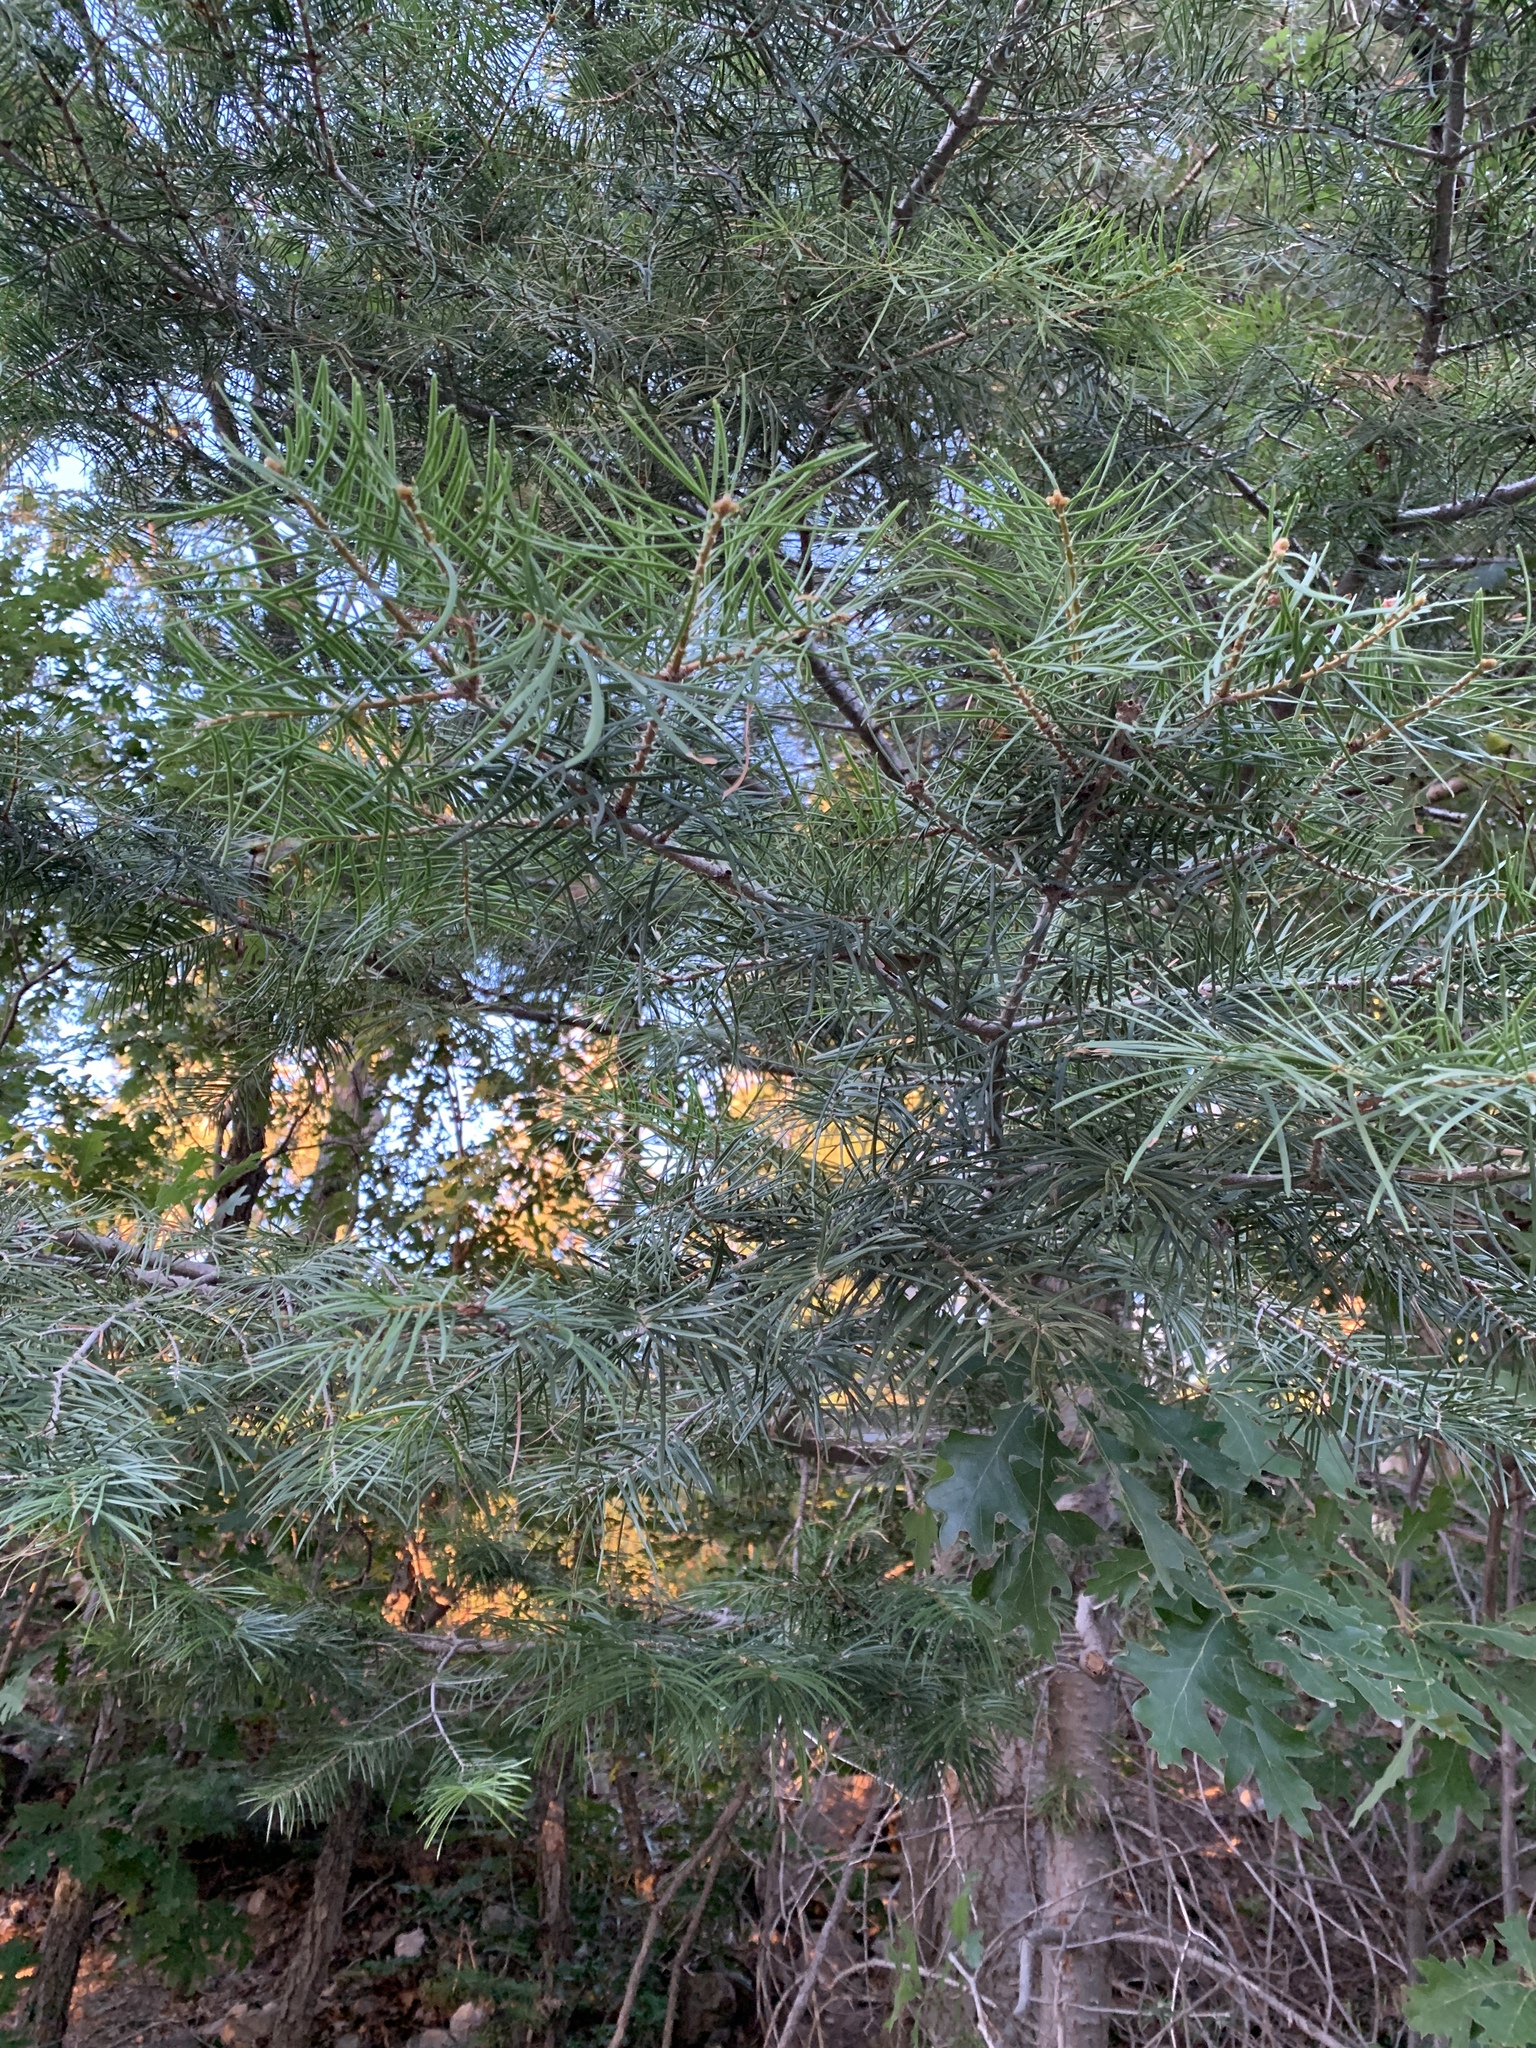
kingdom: Plantae
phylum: Tracheophyta
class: Pinopsida
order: Pinales
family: Pinaceae
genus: Abies
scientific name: Abies concolor
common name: Colorado fir
